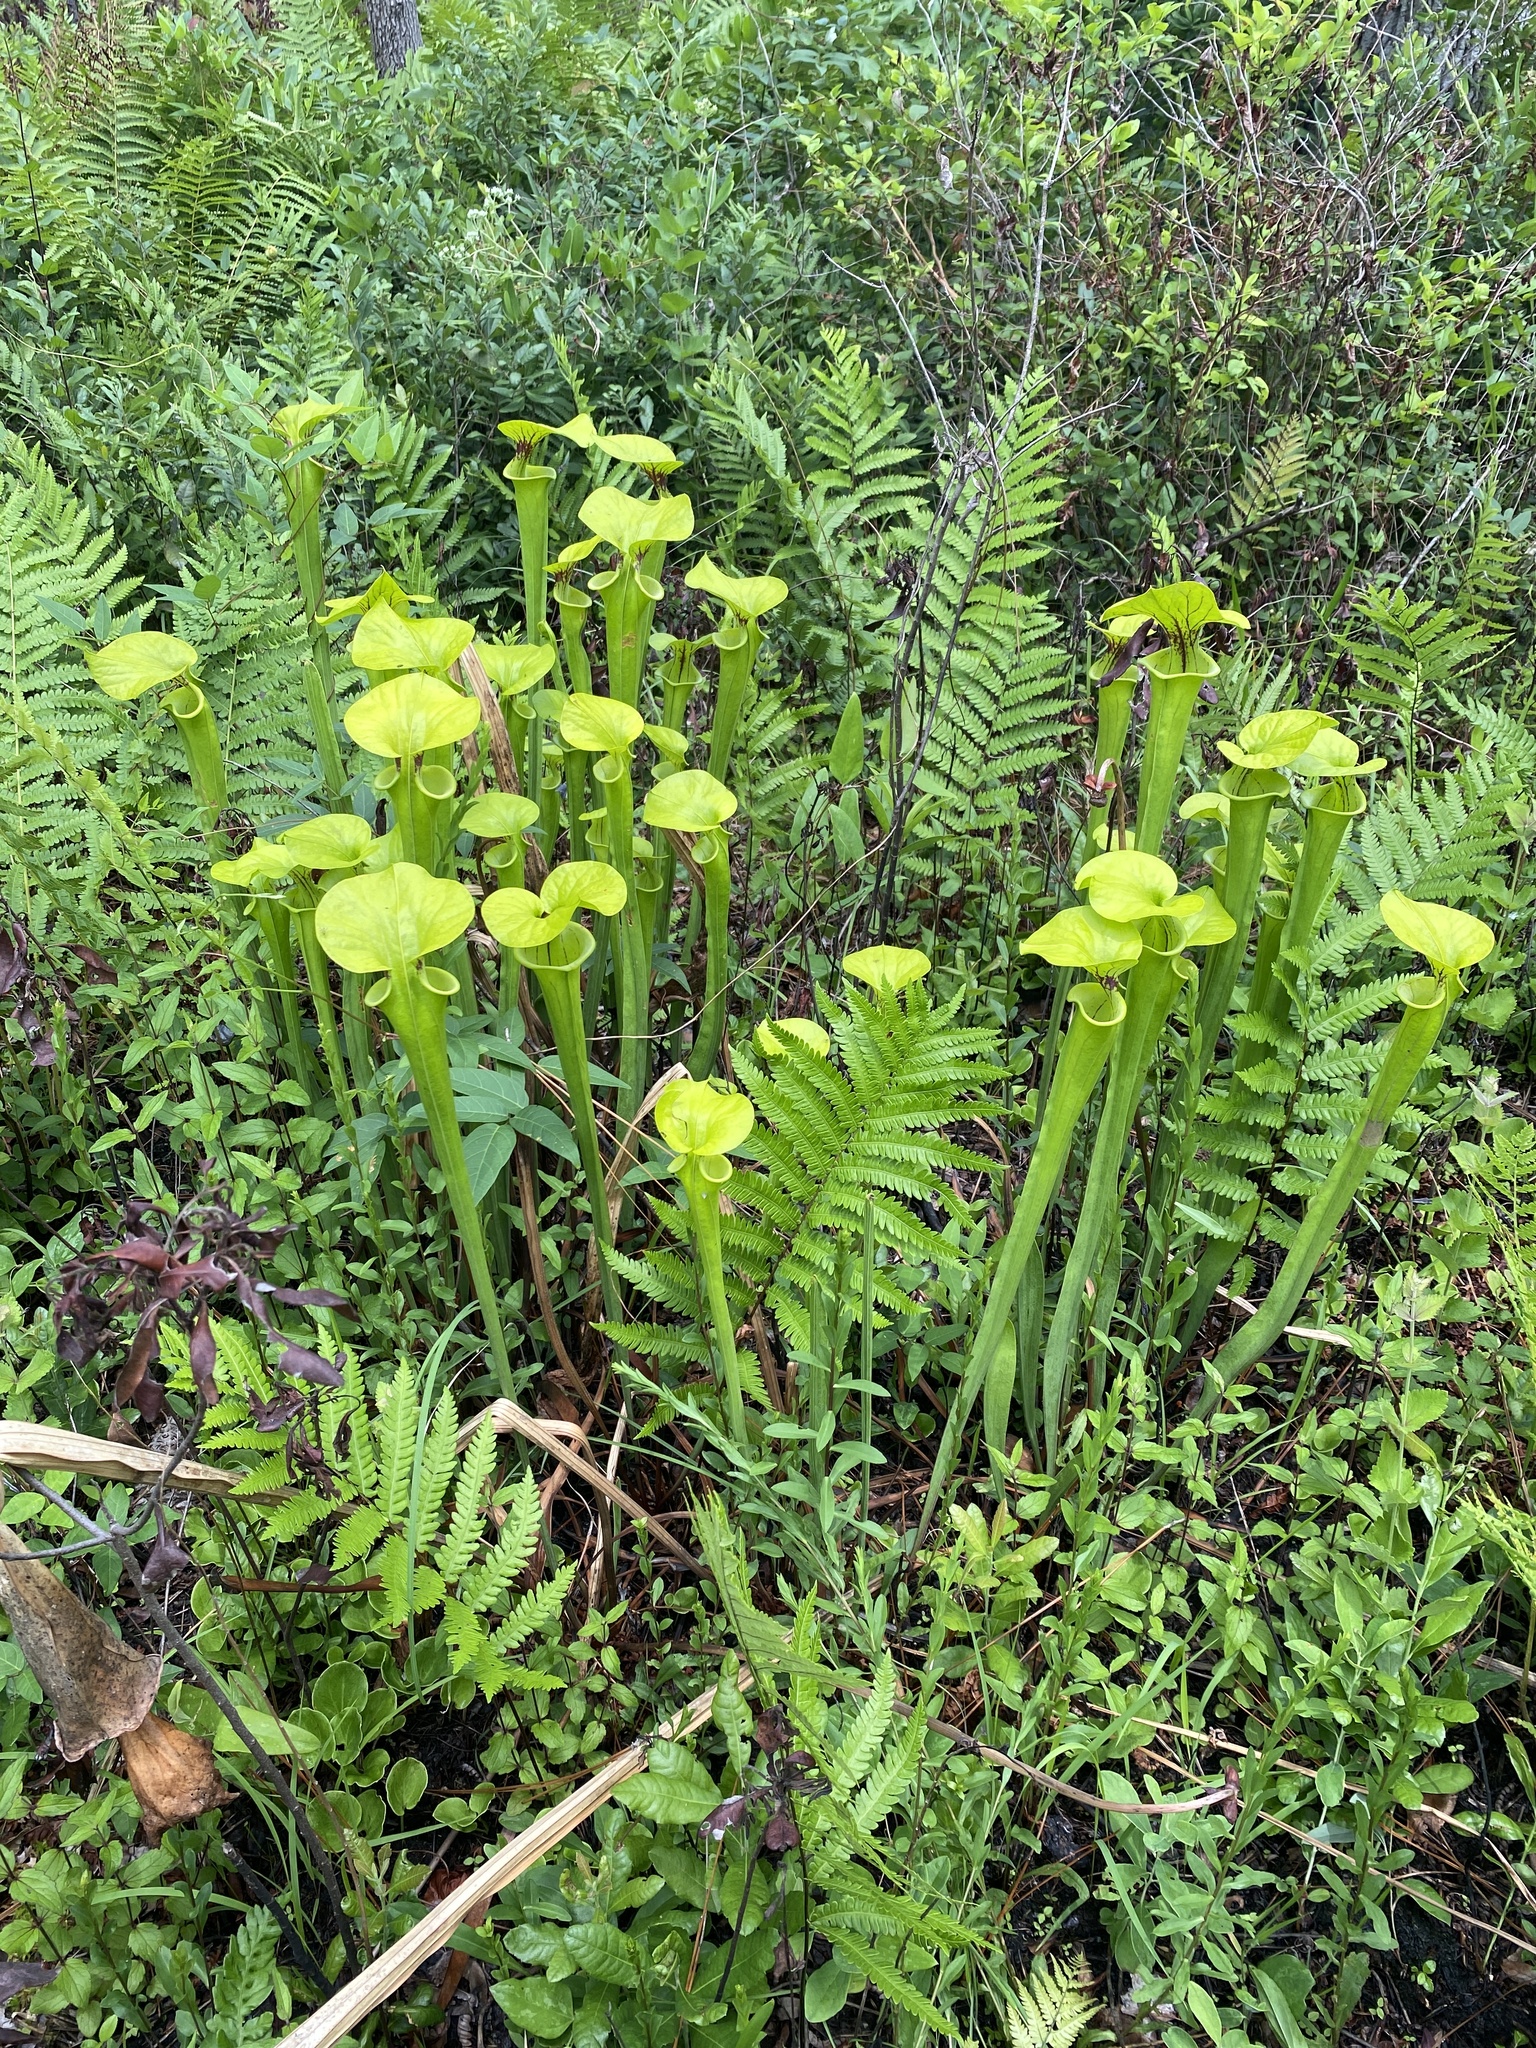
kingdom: Plantae
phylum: Tracheophyta
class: Magnoliopsida
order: Ericales
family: Sarraceniaceae
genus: Sarracenia
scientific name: Sarracenia flava
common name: Trumpets
